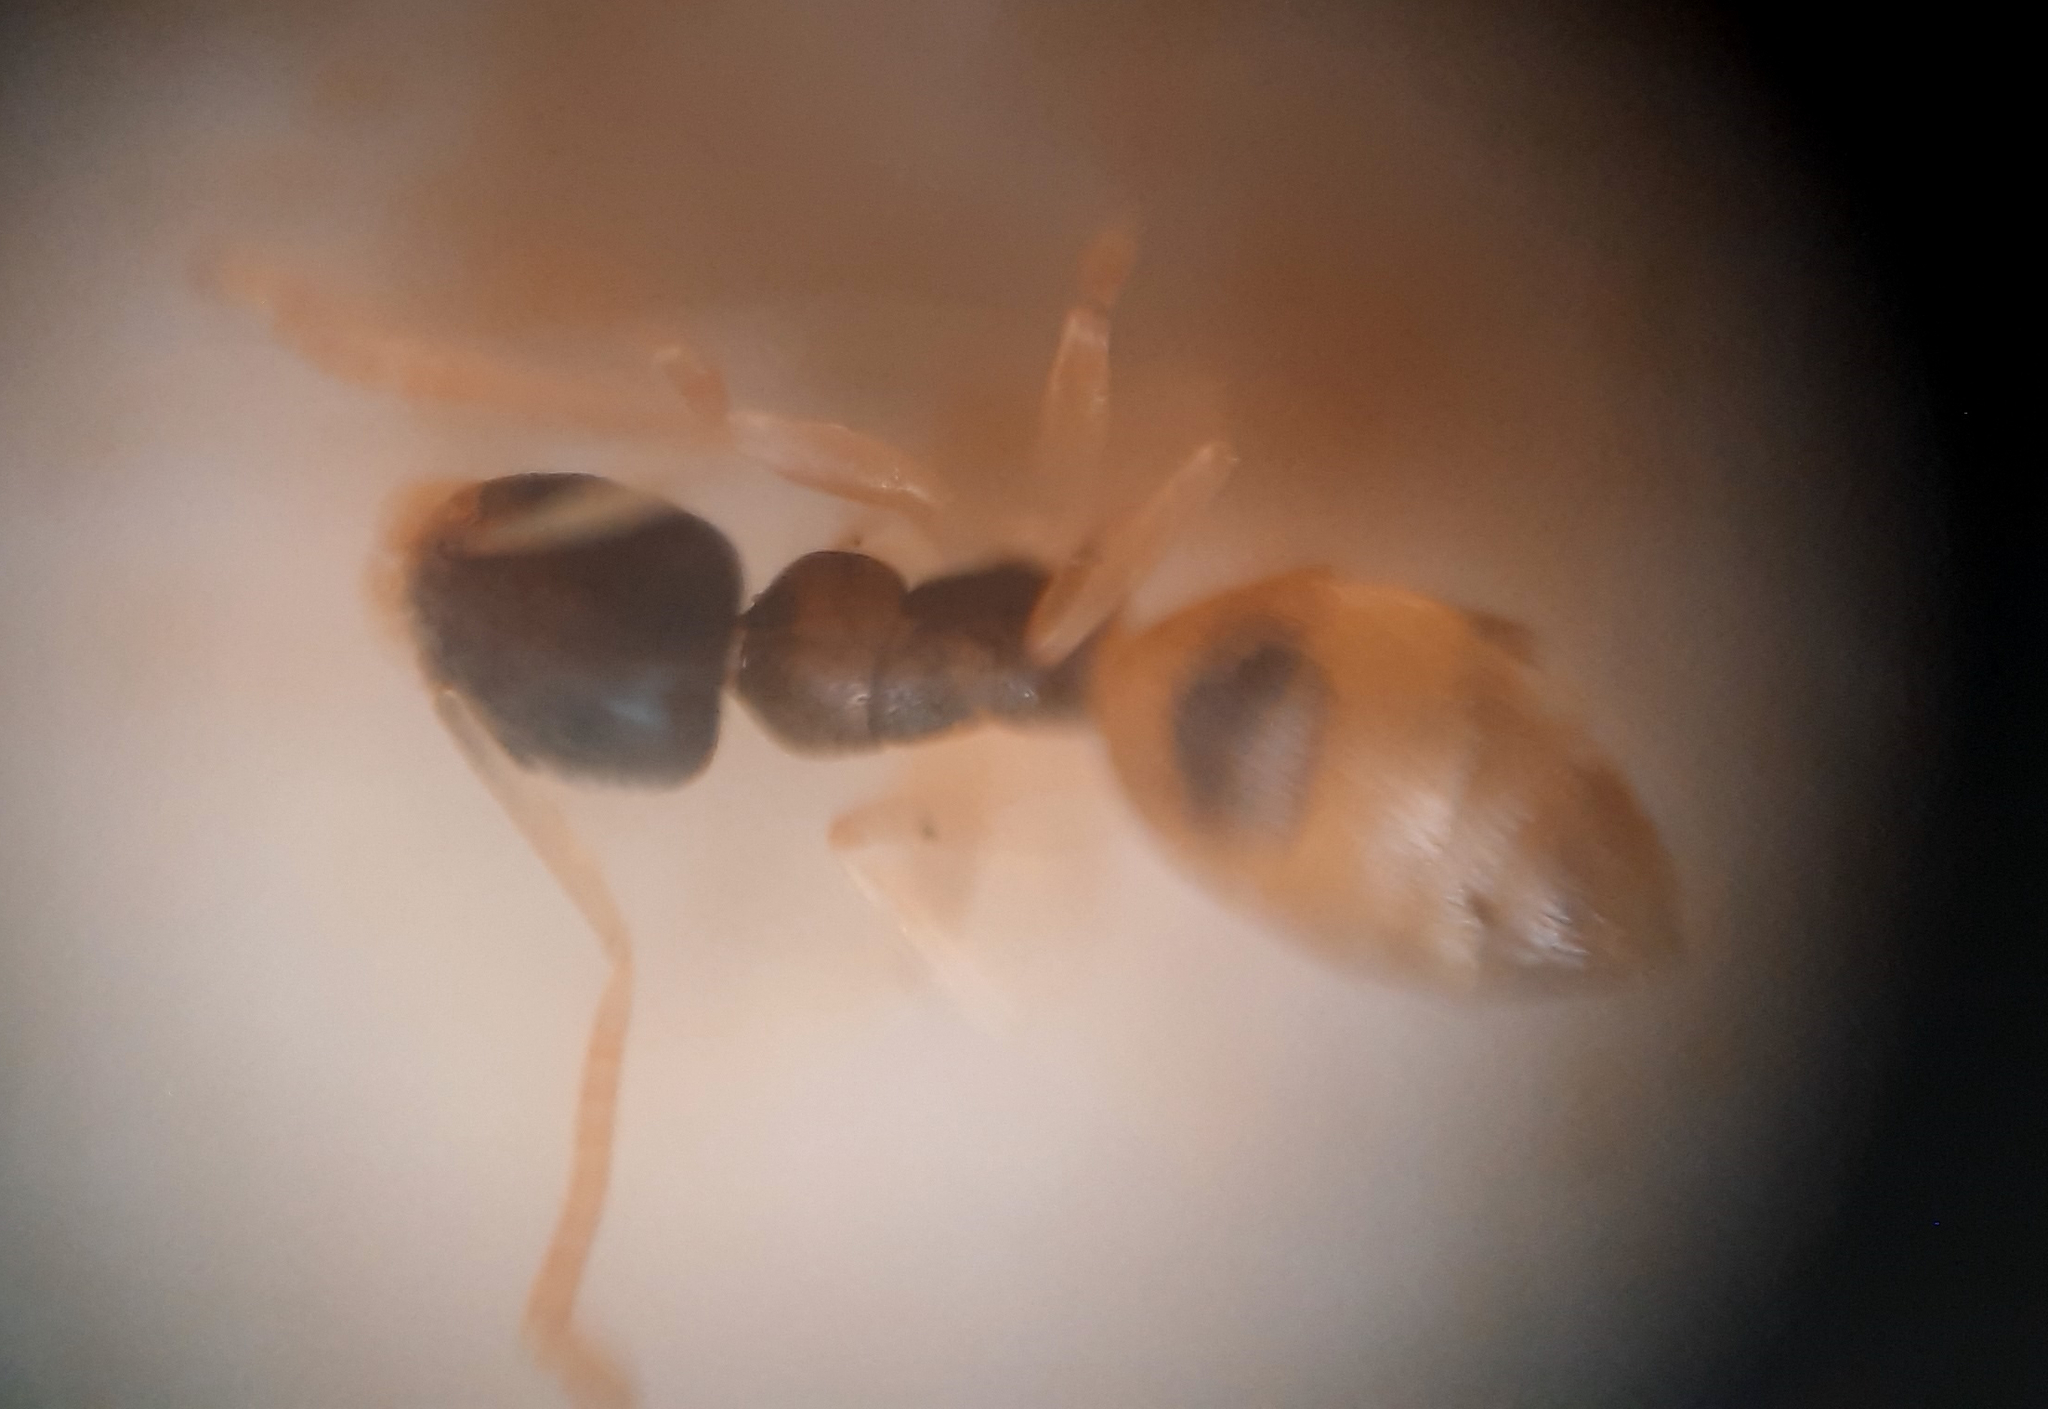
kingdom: Animalia
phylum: Arthropoda
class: Insecta
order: Hymenoptera
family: Formicidae
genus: Tapinoma
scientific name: Tapinoma melanocephalum
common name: Ghost ant
